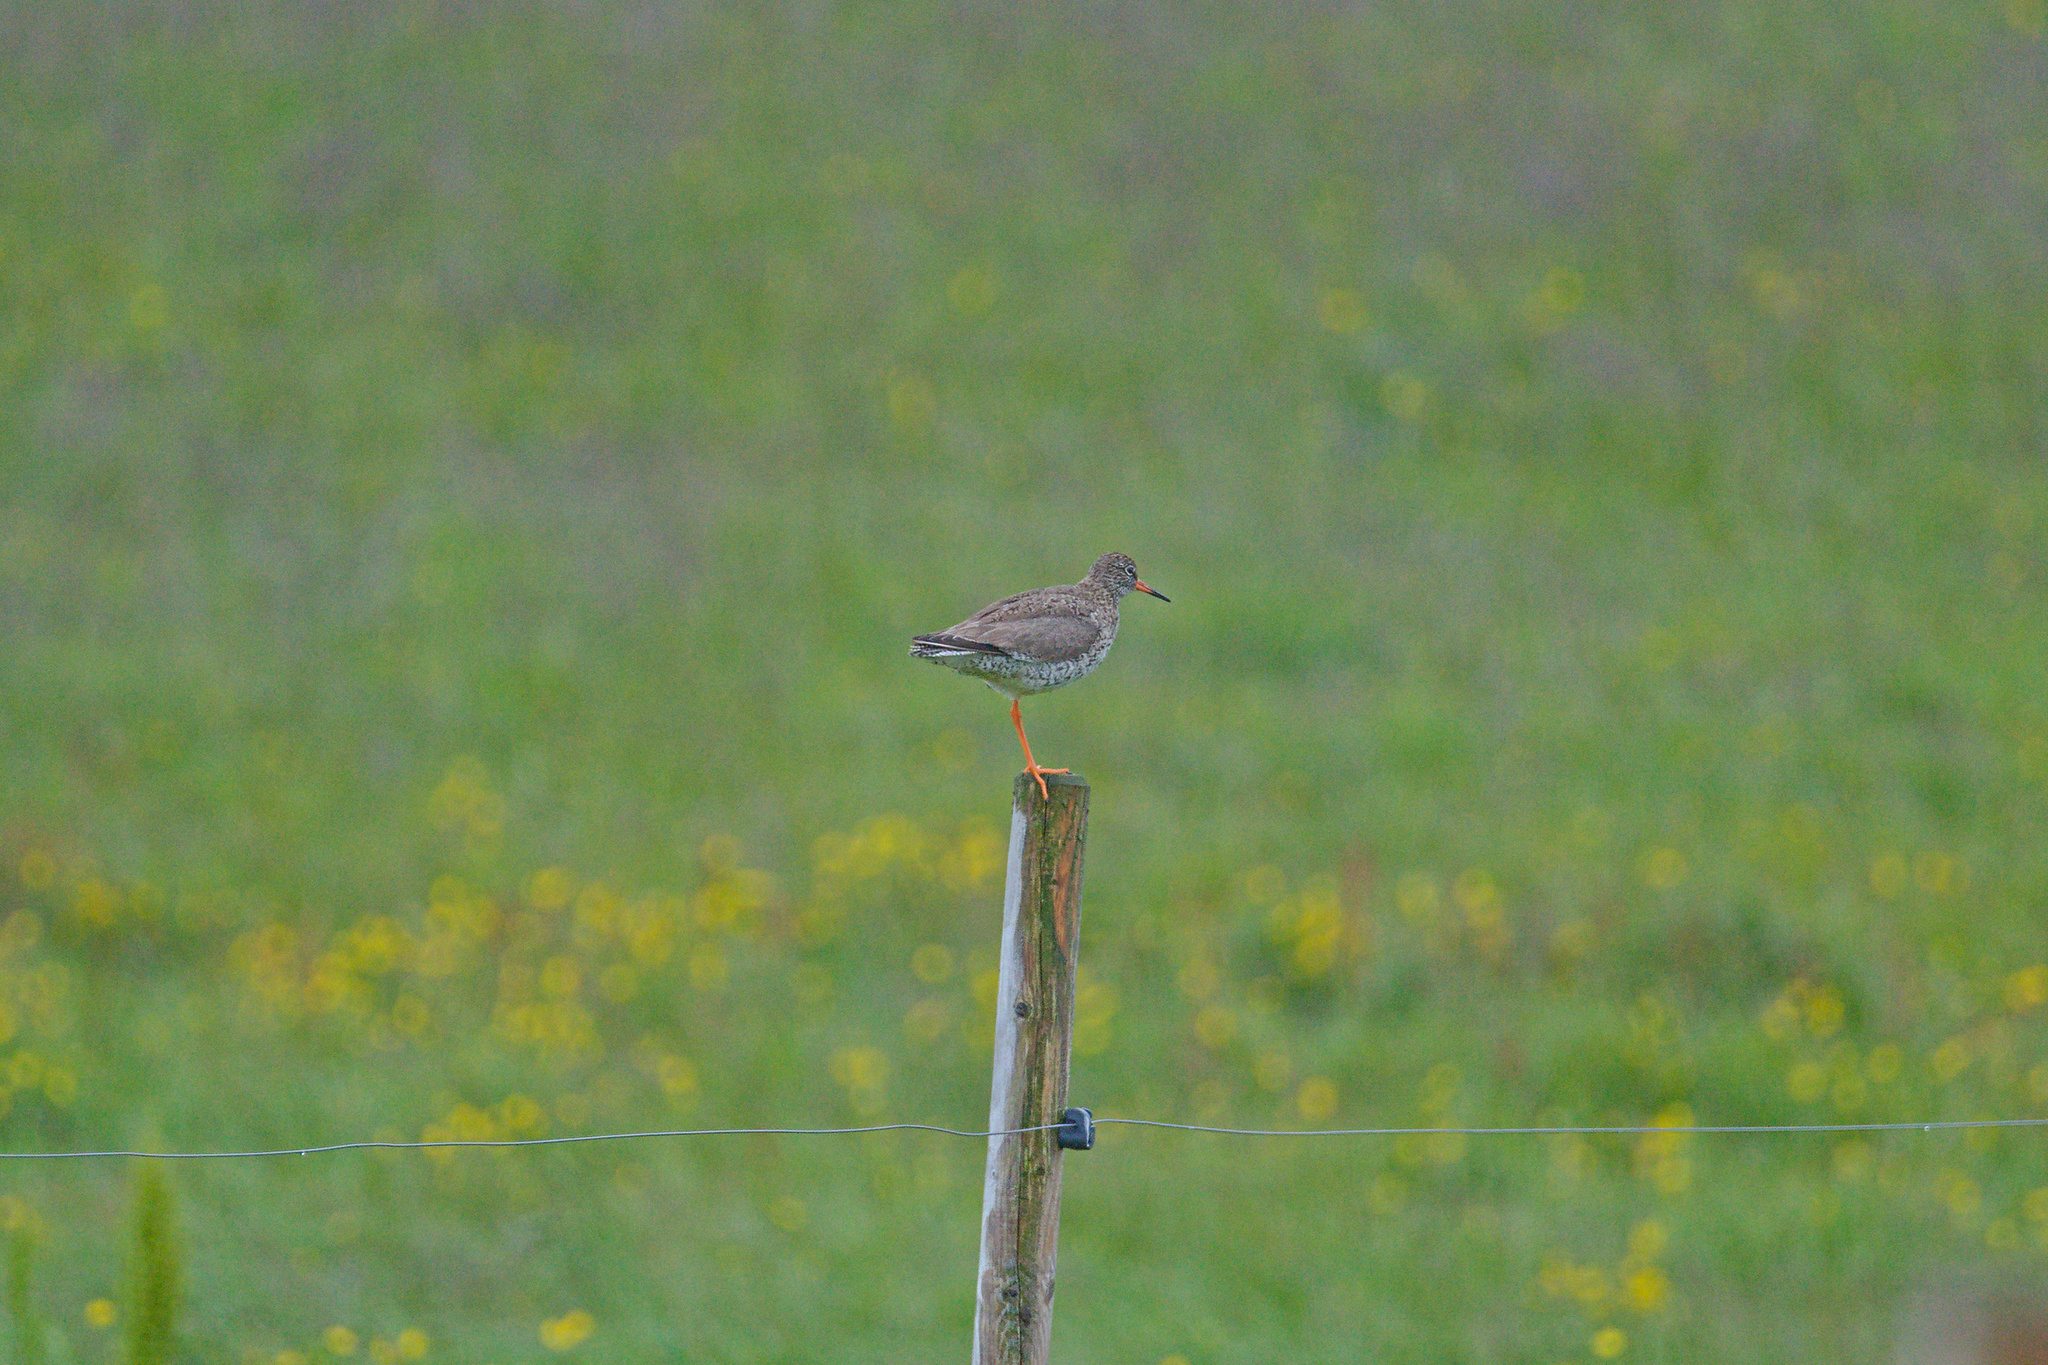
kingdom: Animalia
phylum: Chordata
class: Aves
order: Charadriiformes
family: Scolopacidae
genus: Tringa
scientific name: Tringa totanus
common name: Common redshank
